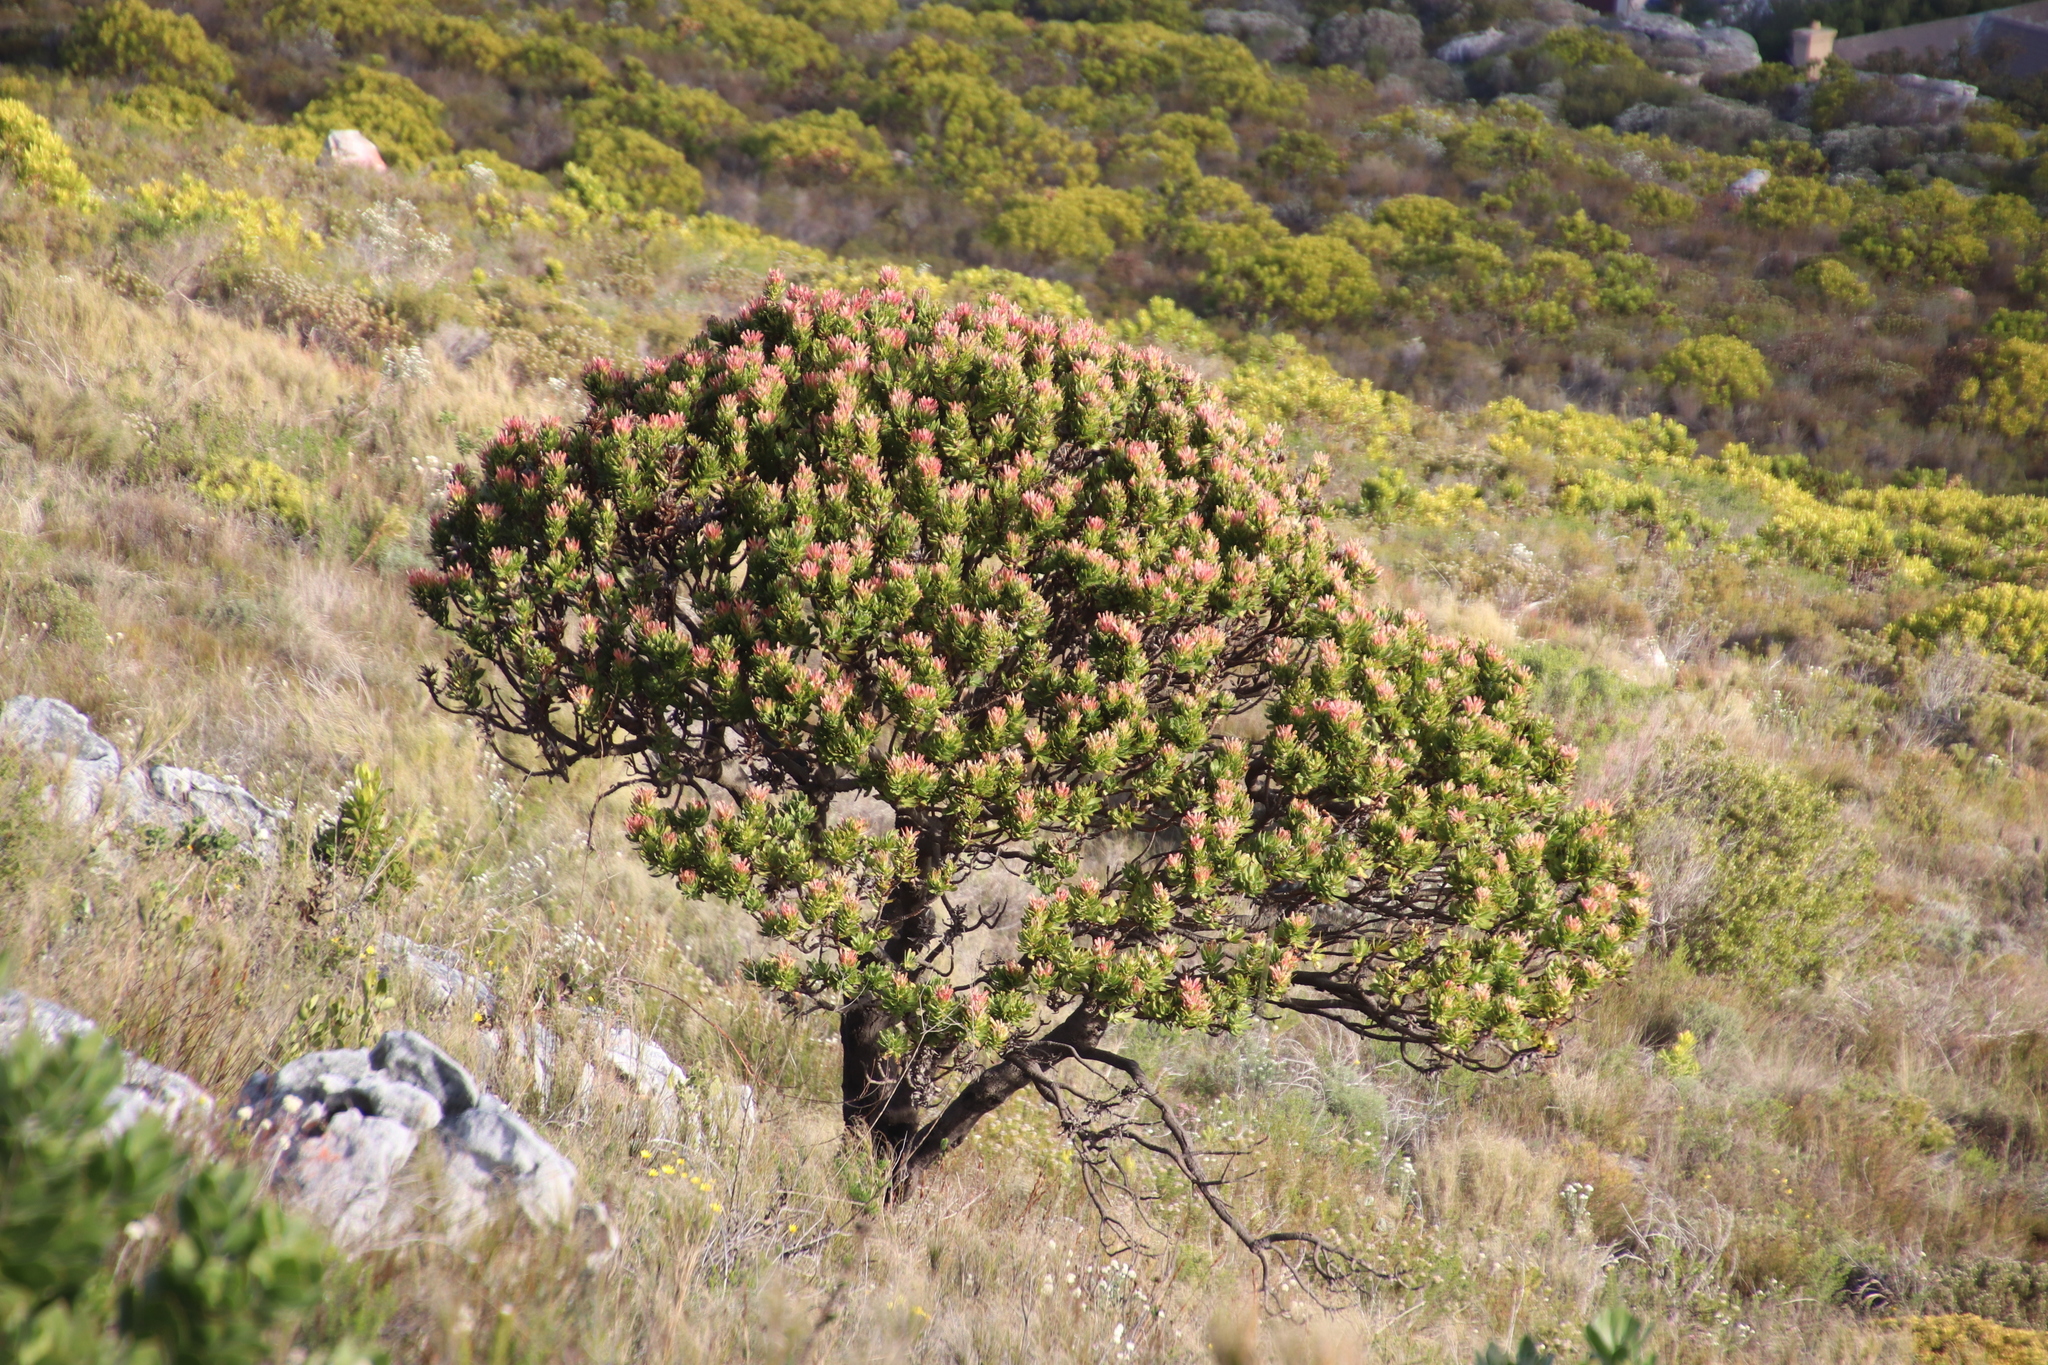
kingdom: Plantae
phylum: Tracheophyta
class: Magnoliopsida
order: Proteales
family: Proteaceae
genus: Mimetes
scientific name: Mimetes fimbriifolius
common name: Fringed bottlebrush
